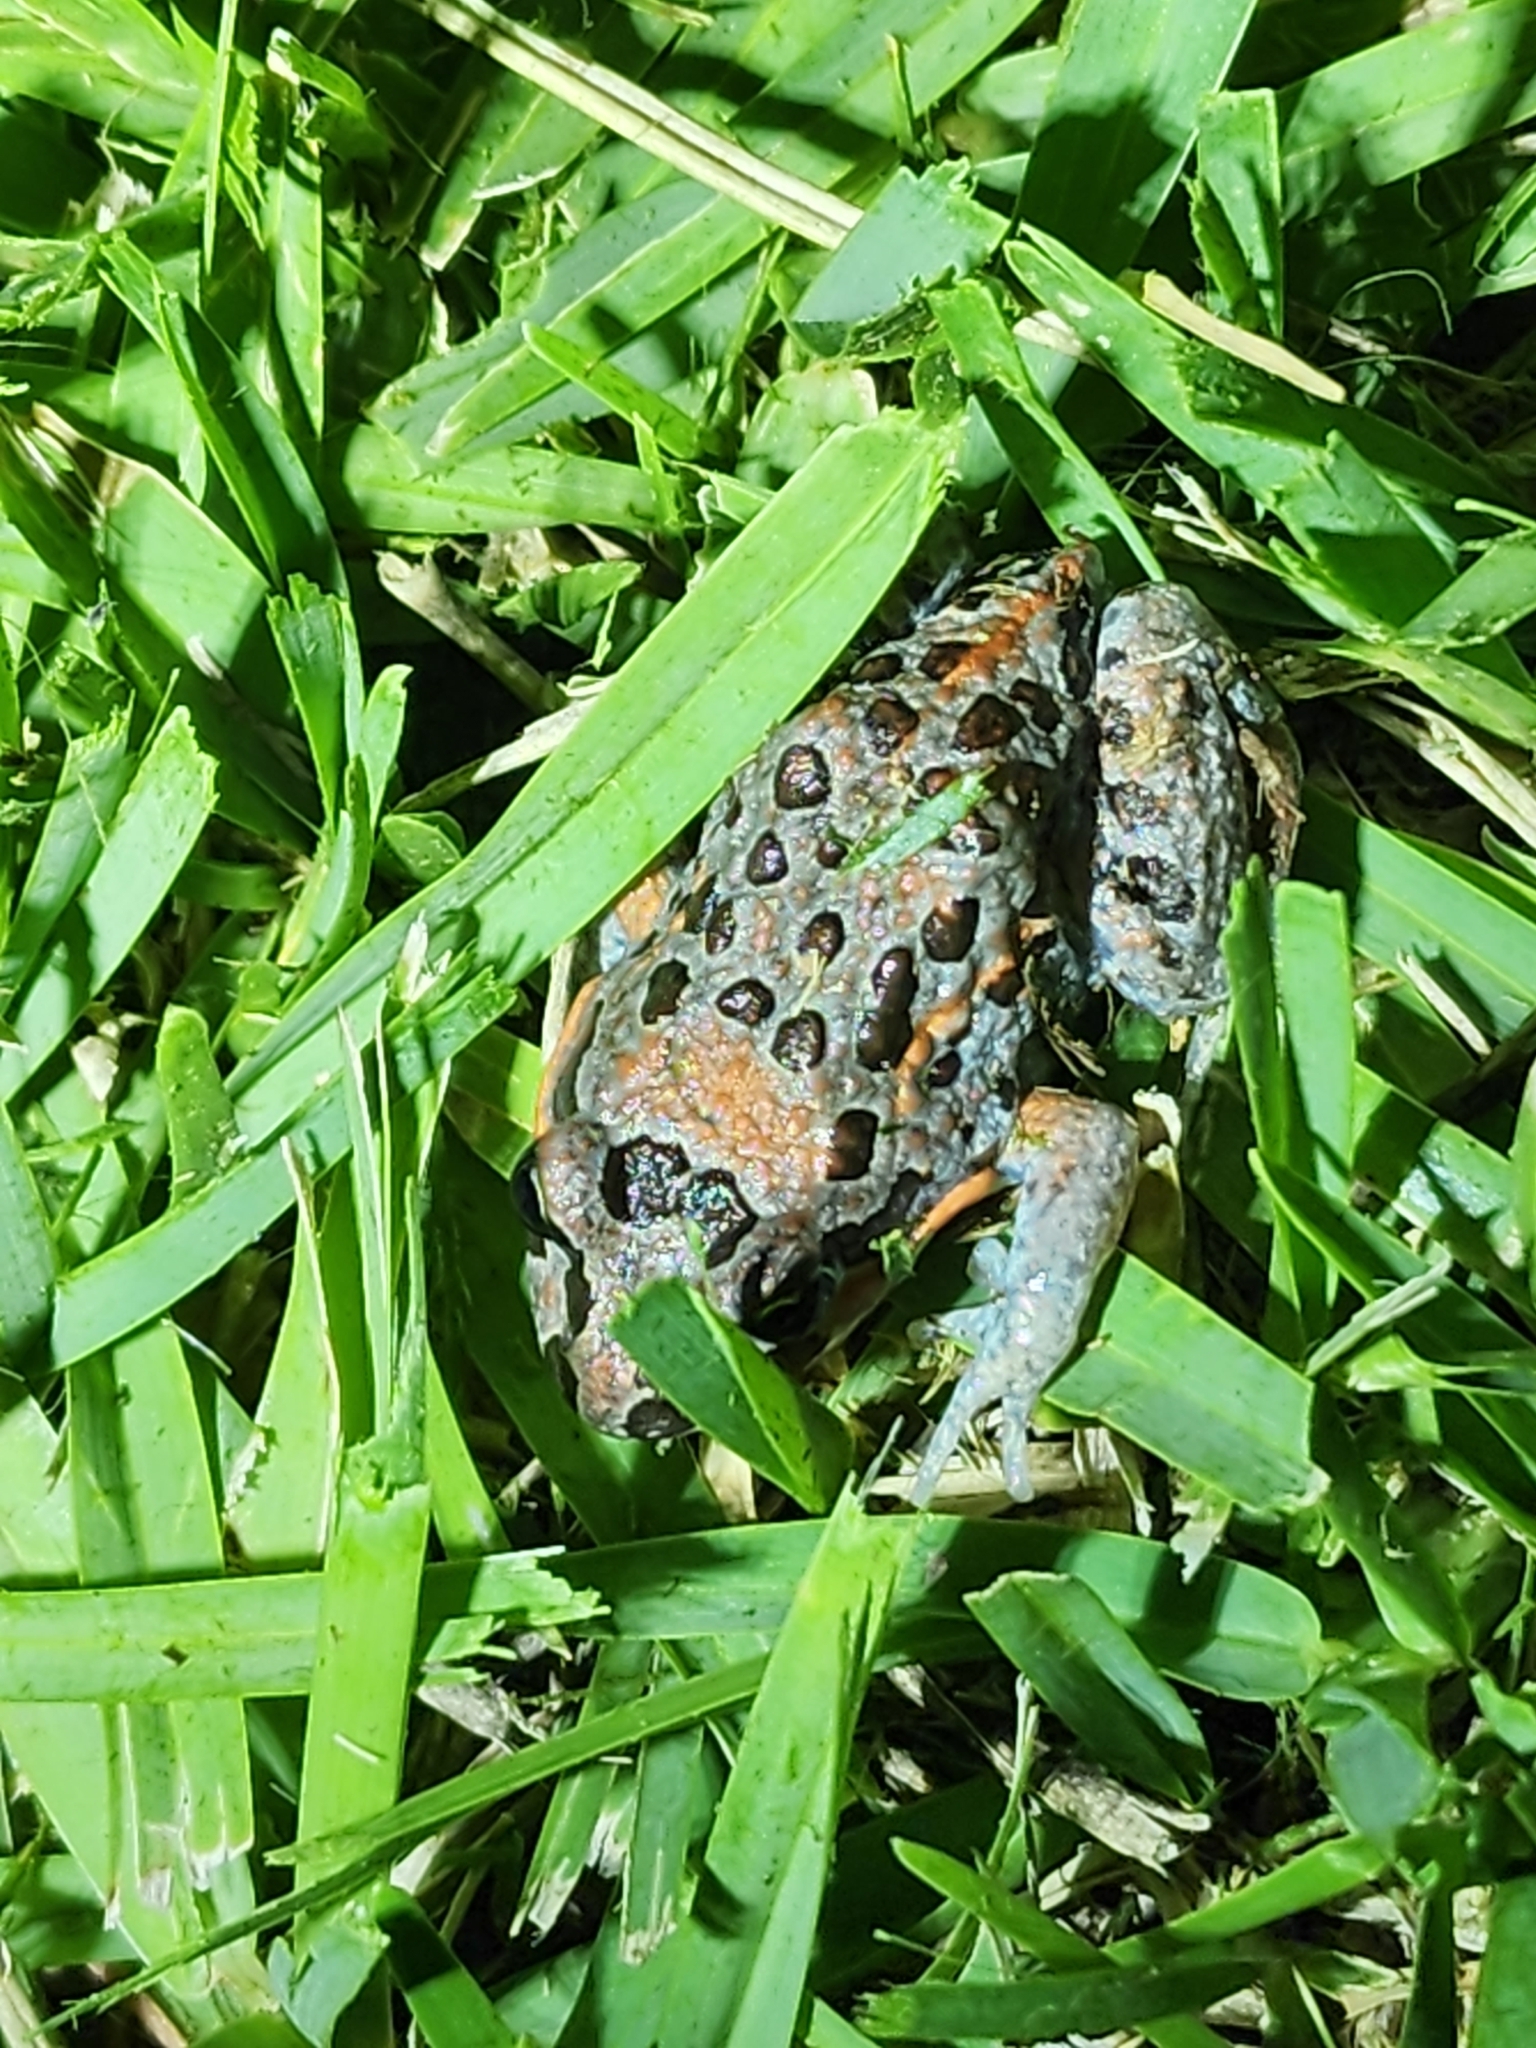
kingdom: Animalia
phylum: Chordata
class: Amphibia
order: Anura
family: Limnodynastidae
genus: Limnodynastes
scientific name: Limnodynastes salmini
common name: Salmon-striped frog
